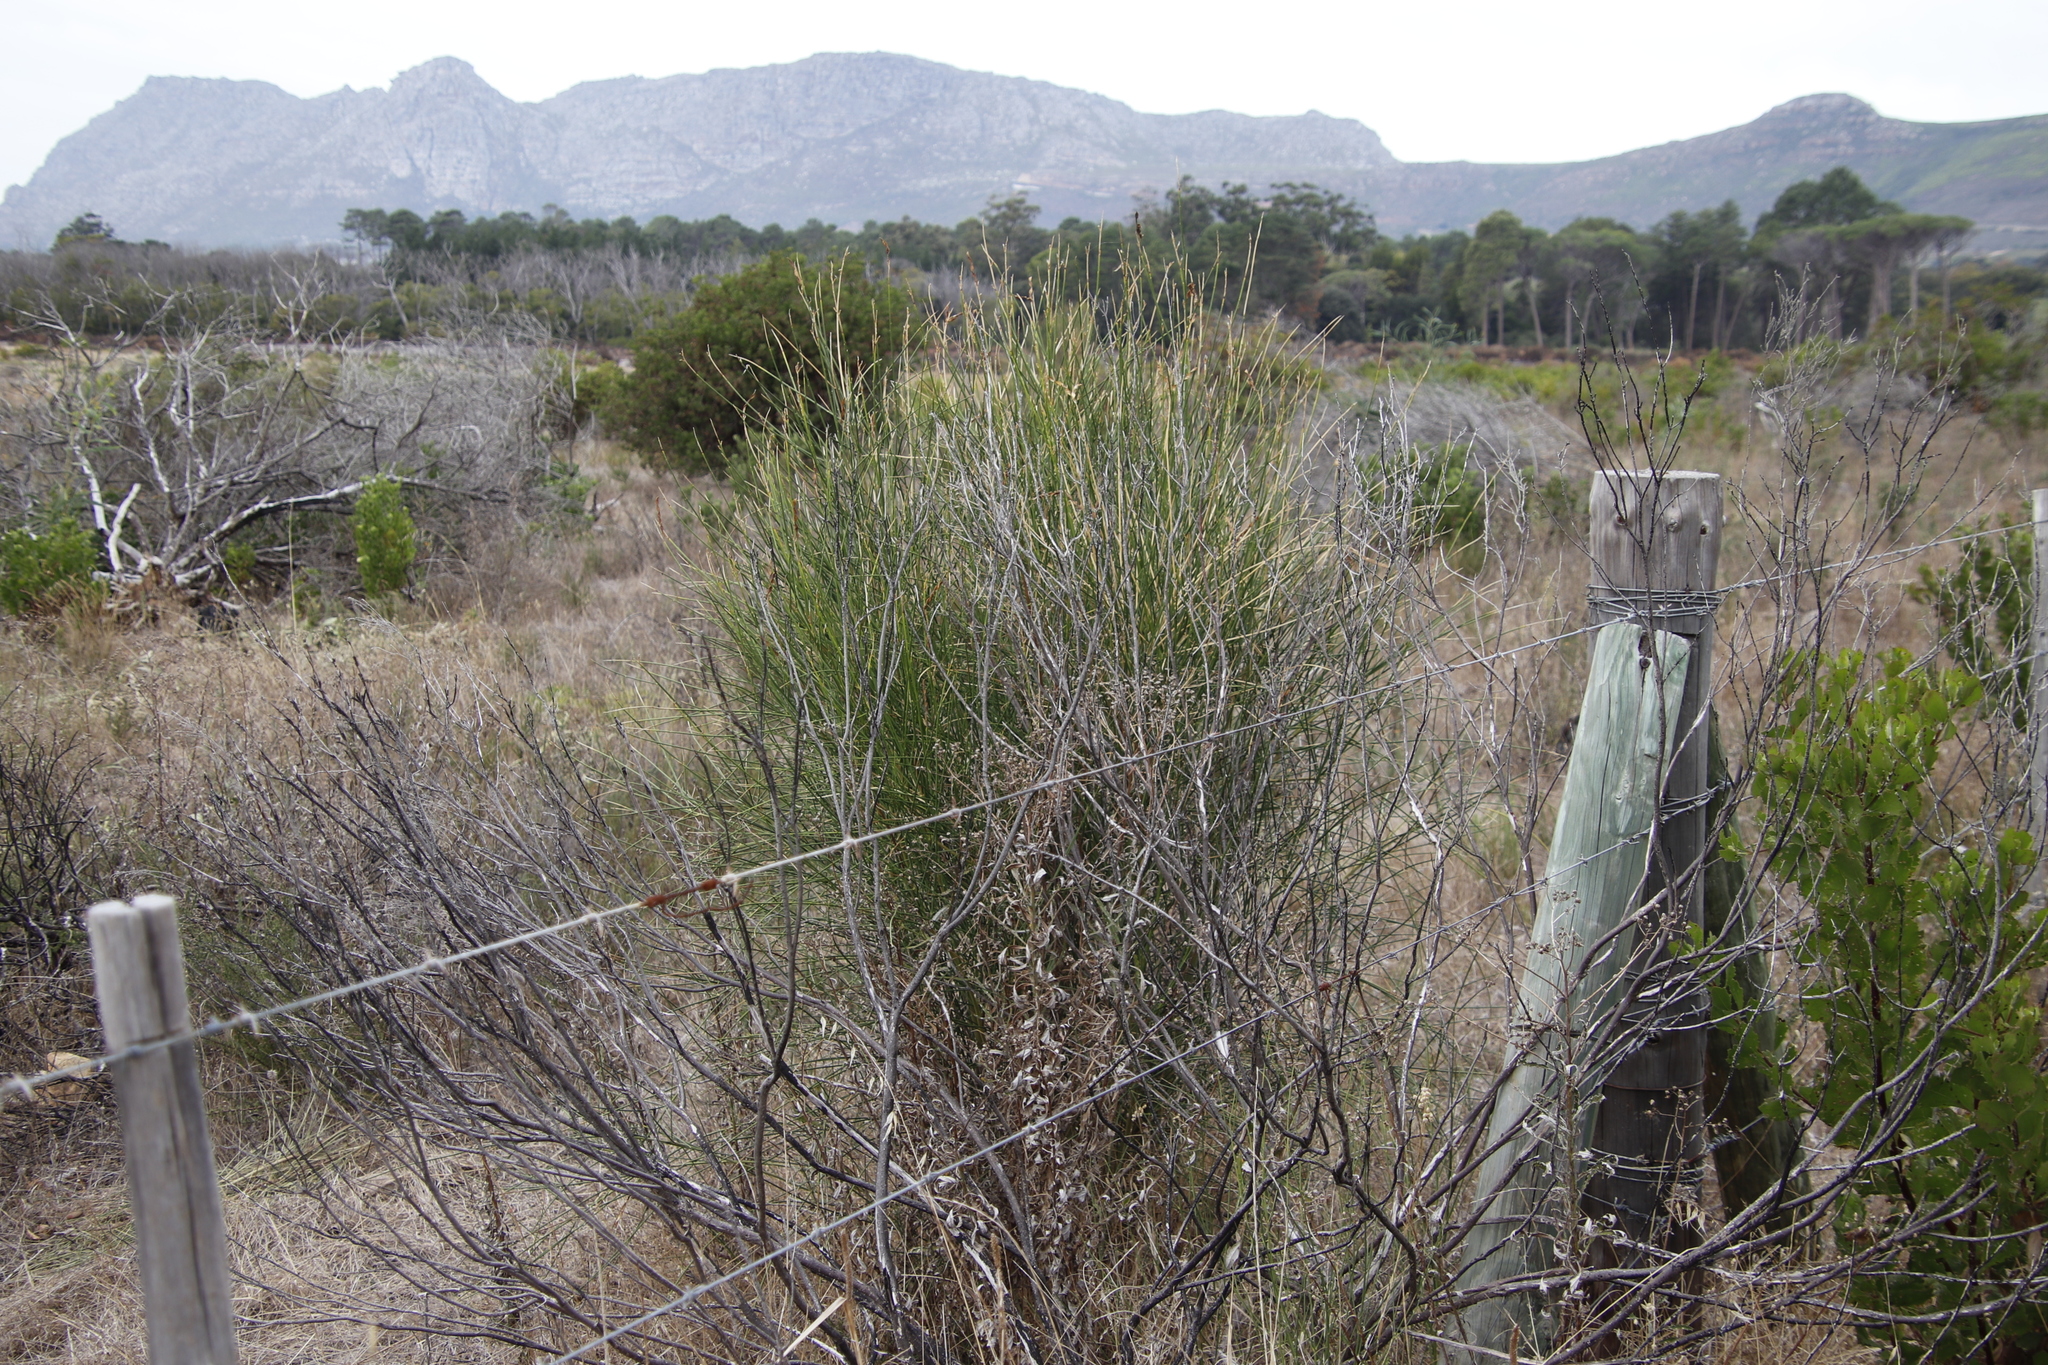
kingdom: Plantae
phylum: Tracheophyta
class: Magnoliopsida
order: Fabales
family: Fabaceae
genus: Spartium
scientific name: Spartium junceum
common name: Spanish broom
